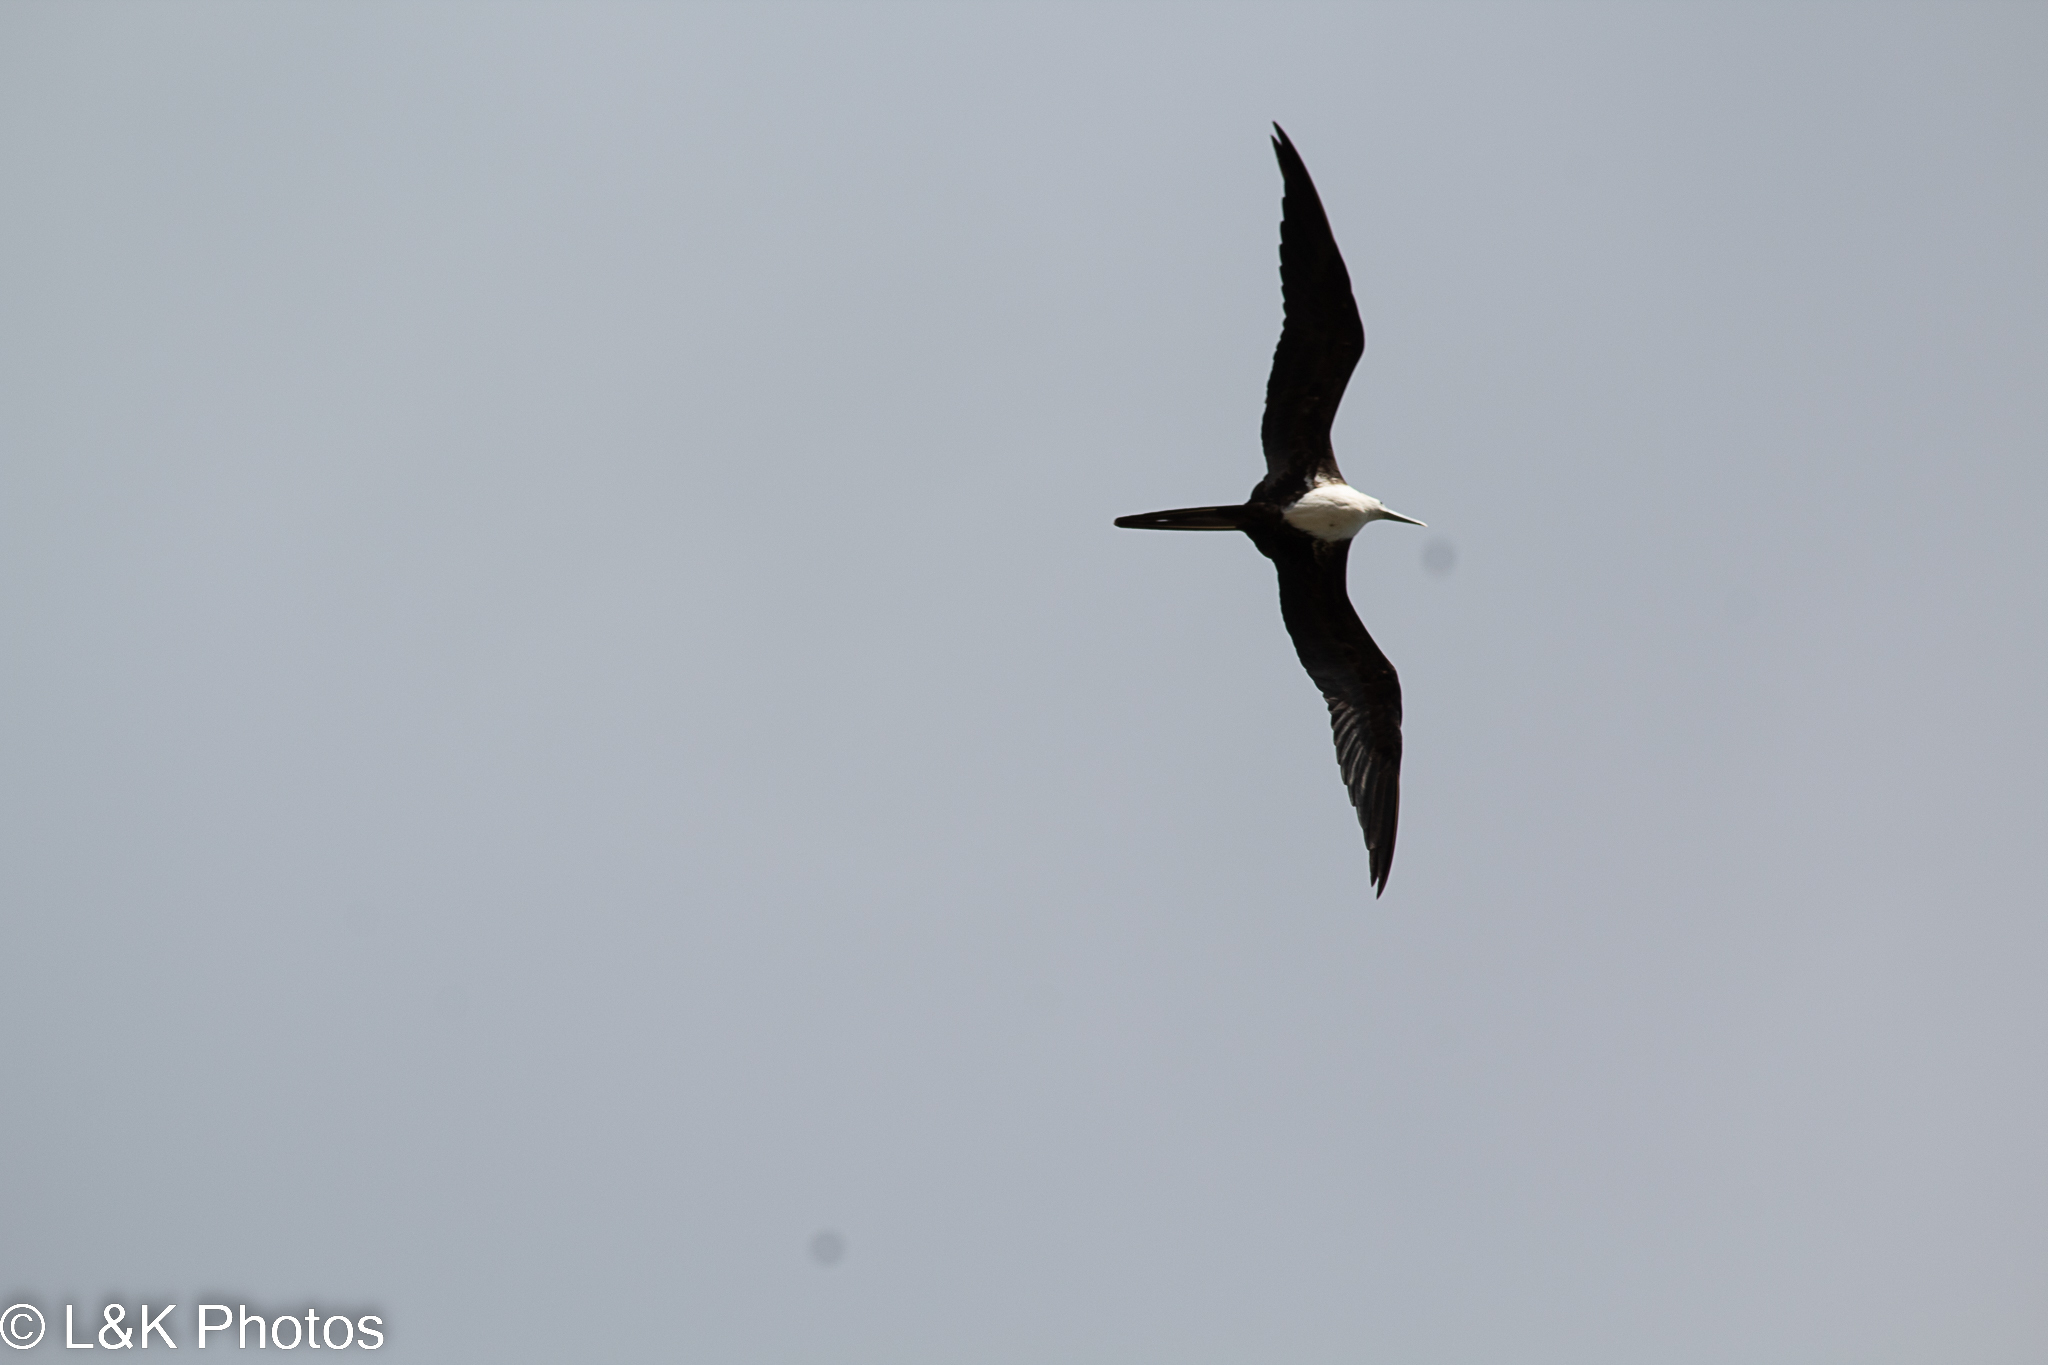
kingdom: Animalia
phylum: Chordata
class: Aves
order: Suliformes
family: Fregatidae
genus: Fregata
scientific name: Fregata magnificens
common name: Magnificent frigatebird
